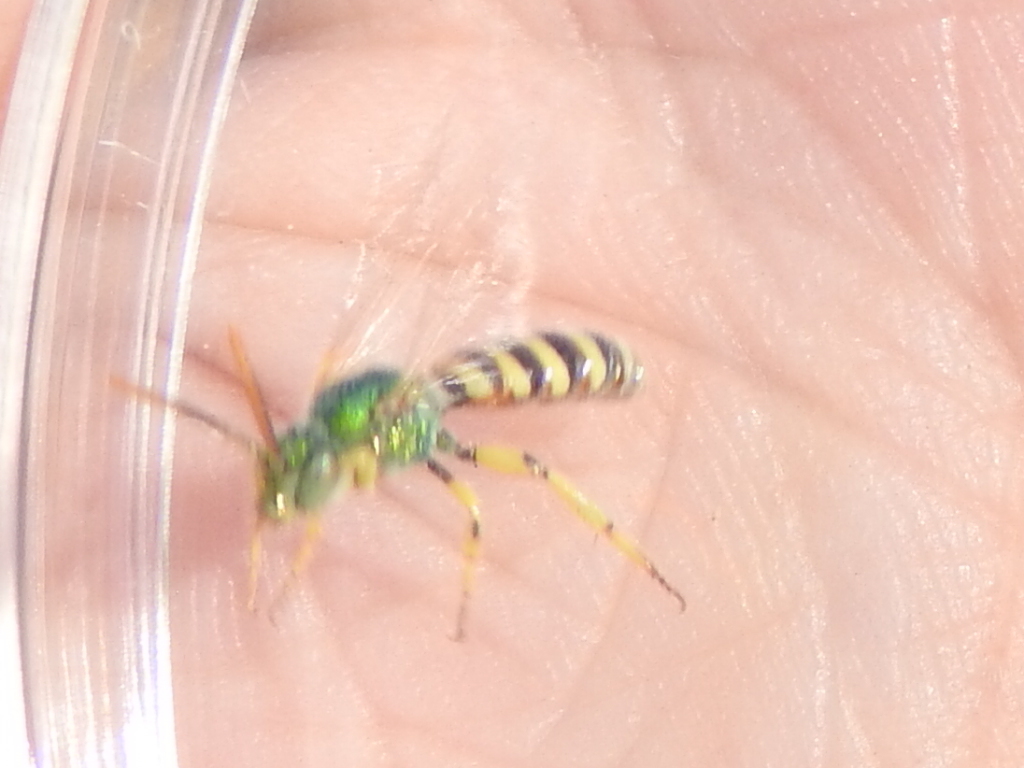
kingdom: Animalia
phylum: Arthropoda
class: Insecta
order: Hymenoptera
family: Halictidae
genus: Agapostemon
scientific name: Agapostemon melliventris
